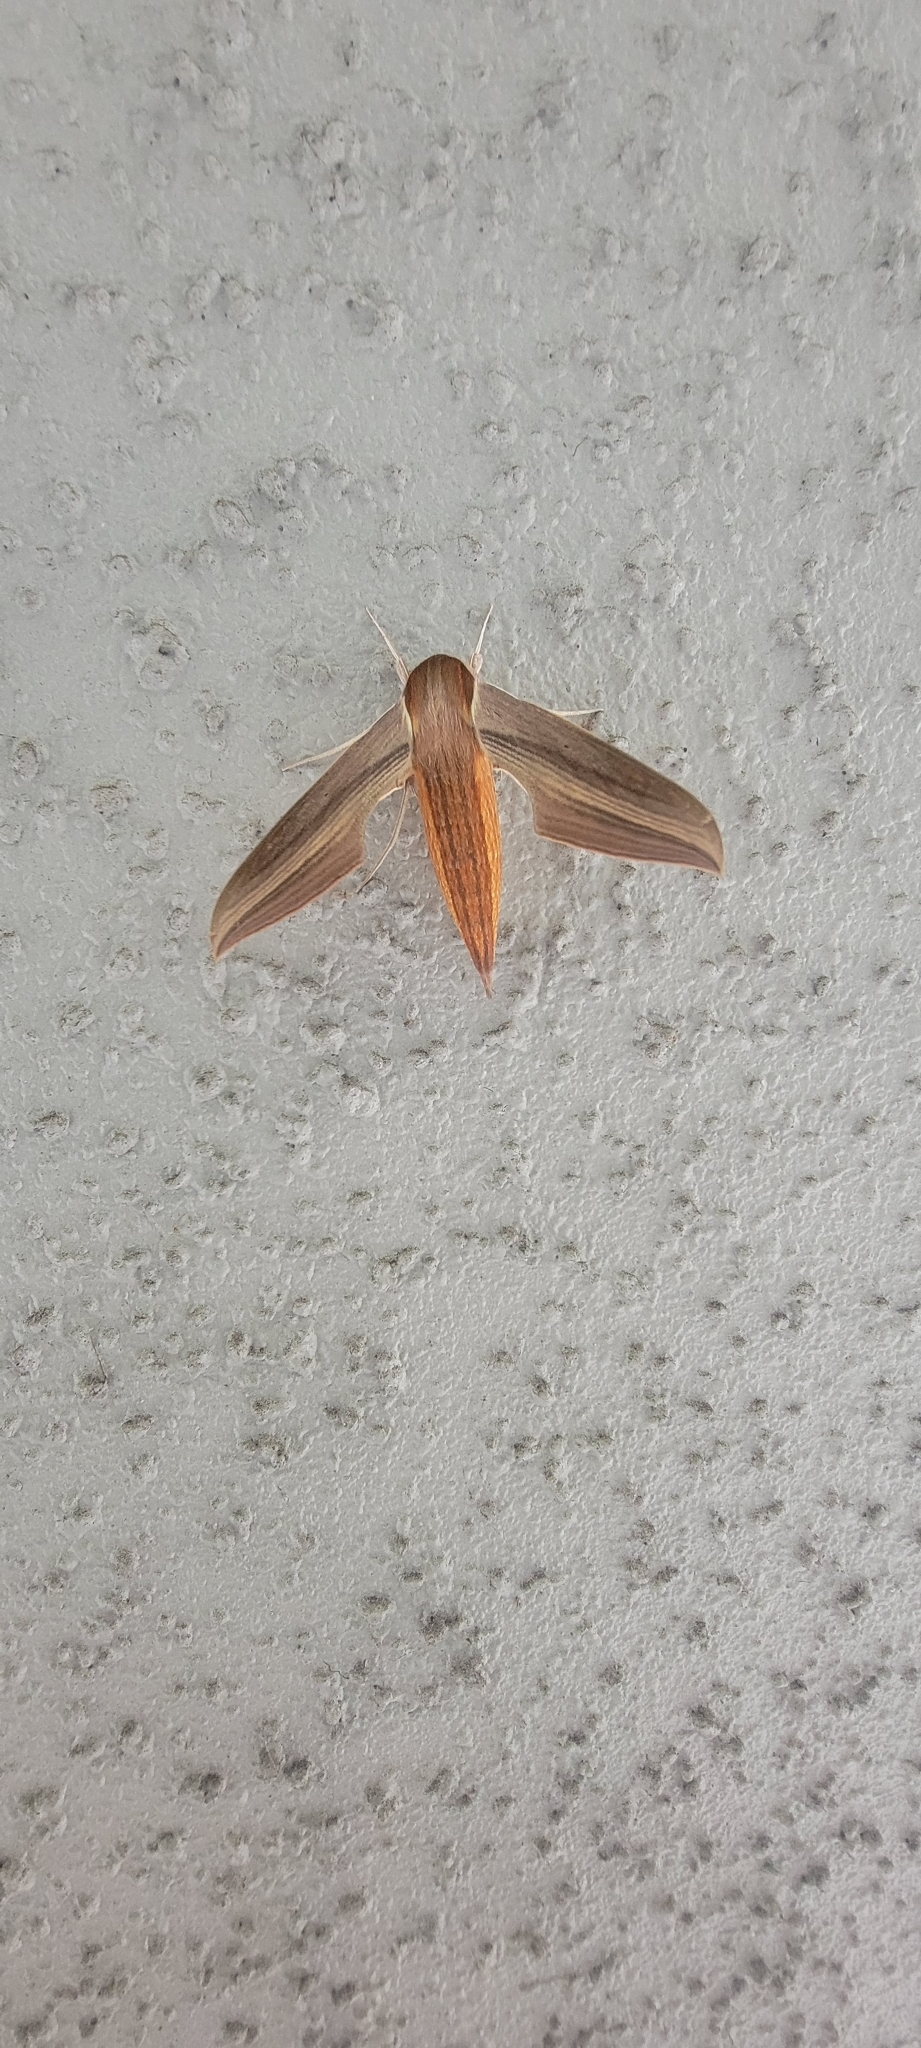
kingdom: Animalia
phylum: Arthropoda
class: Insecta
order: Lepidoptera
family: Sphingidae
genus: Xylophanes
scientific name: Xylophanes tersa
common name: Tersa sphinx
